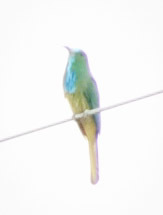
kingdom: Animalia
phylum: Chordata
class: Aves
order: Coraciiformes
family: Meropidae
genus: Nyctyornis
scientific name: Nyctyornis athertoni
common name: Blue-bearded bee-eater
